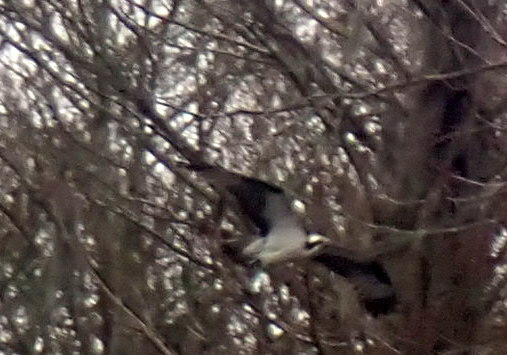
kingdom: Animalia
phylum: Chordata
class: Aves
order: Accipitriformes
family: Pandionidae
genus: Pandion
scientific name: Pandion haliaetus
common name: Osprey
